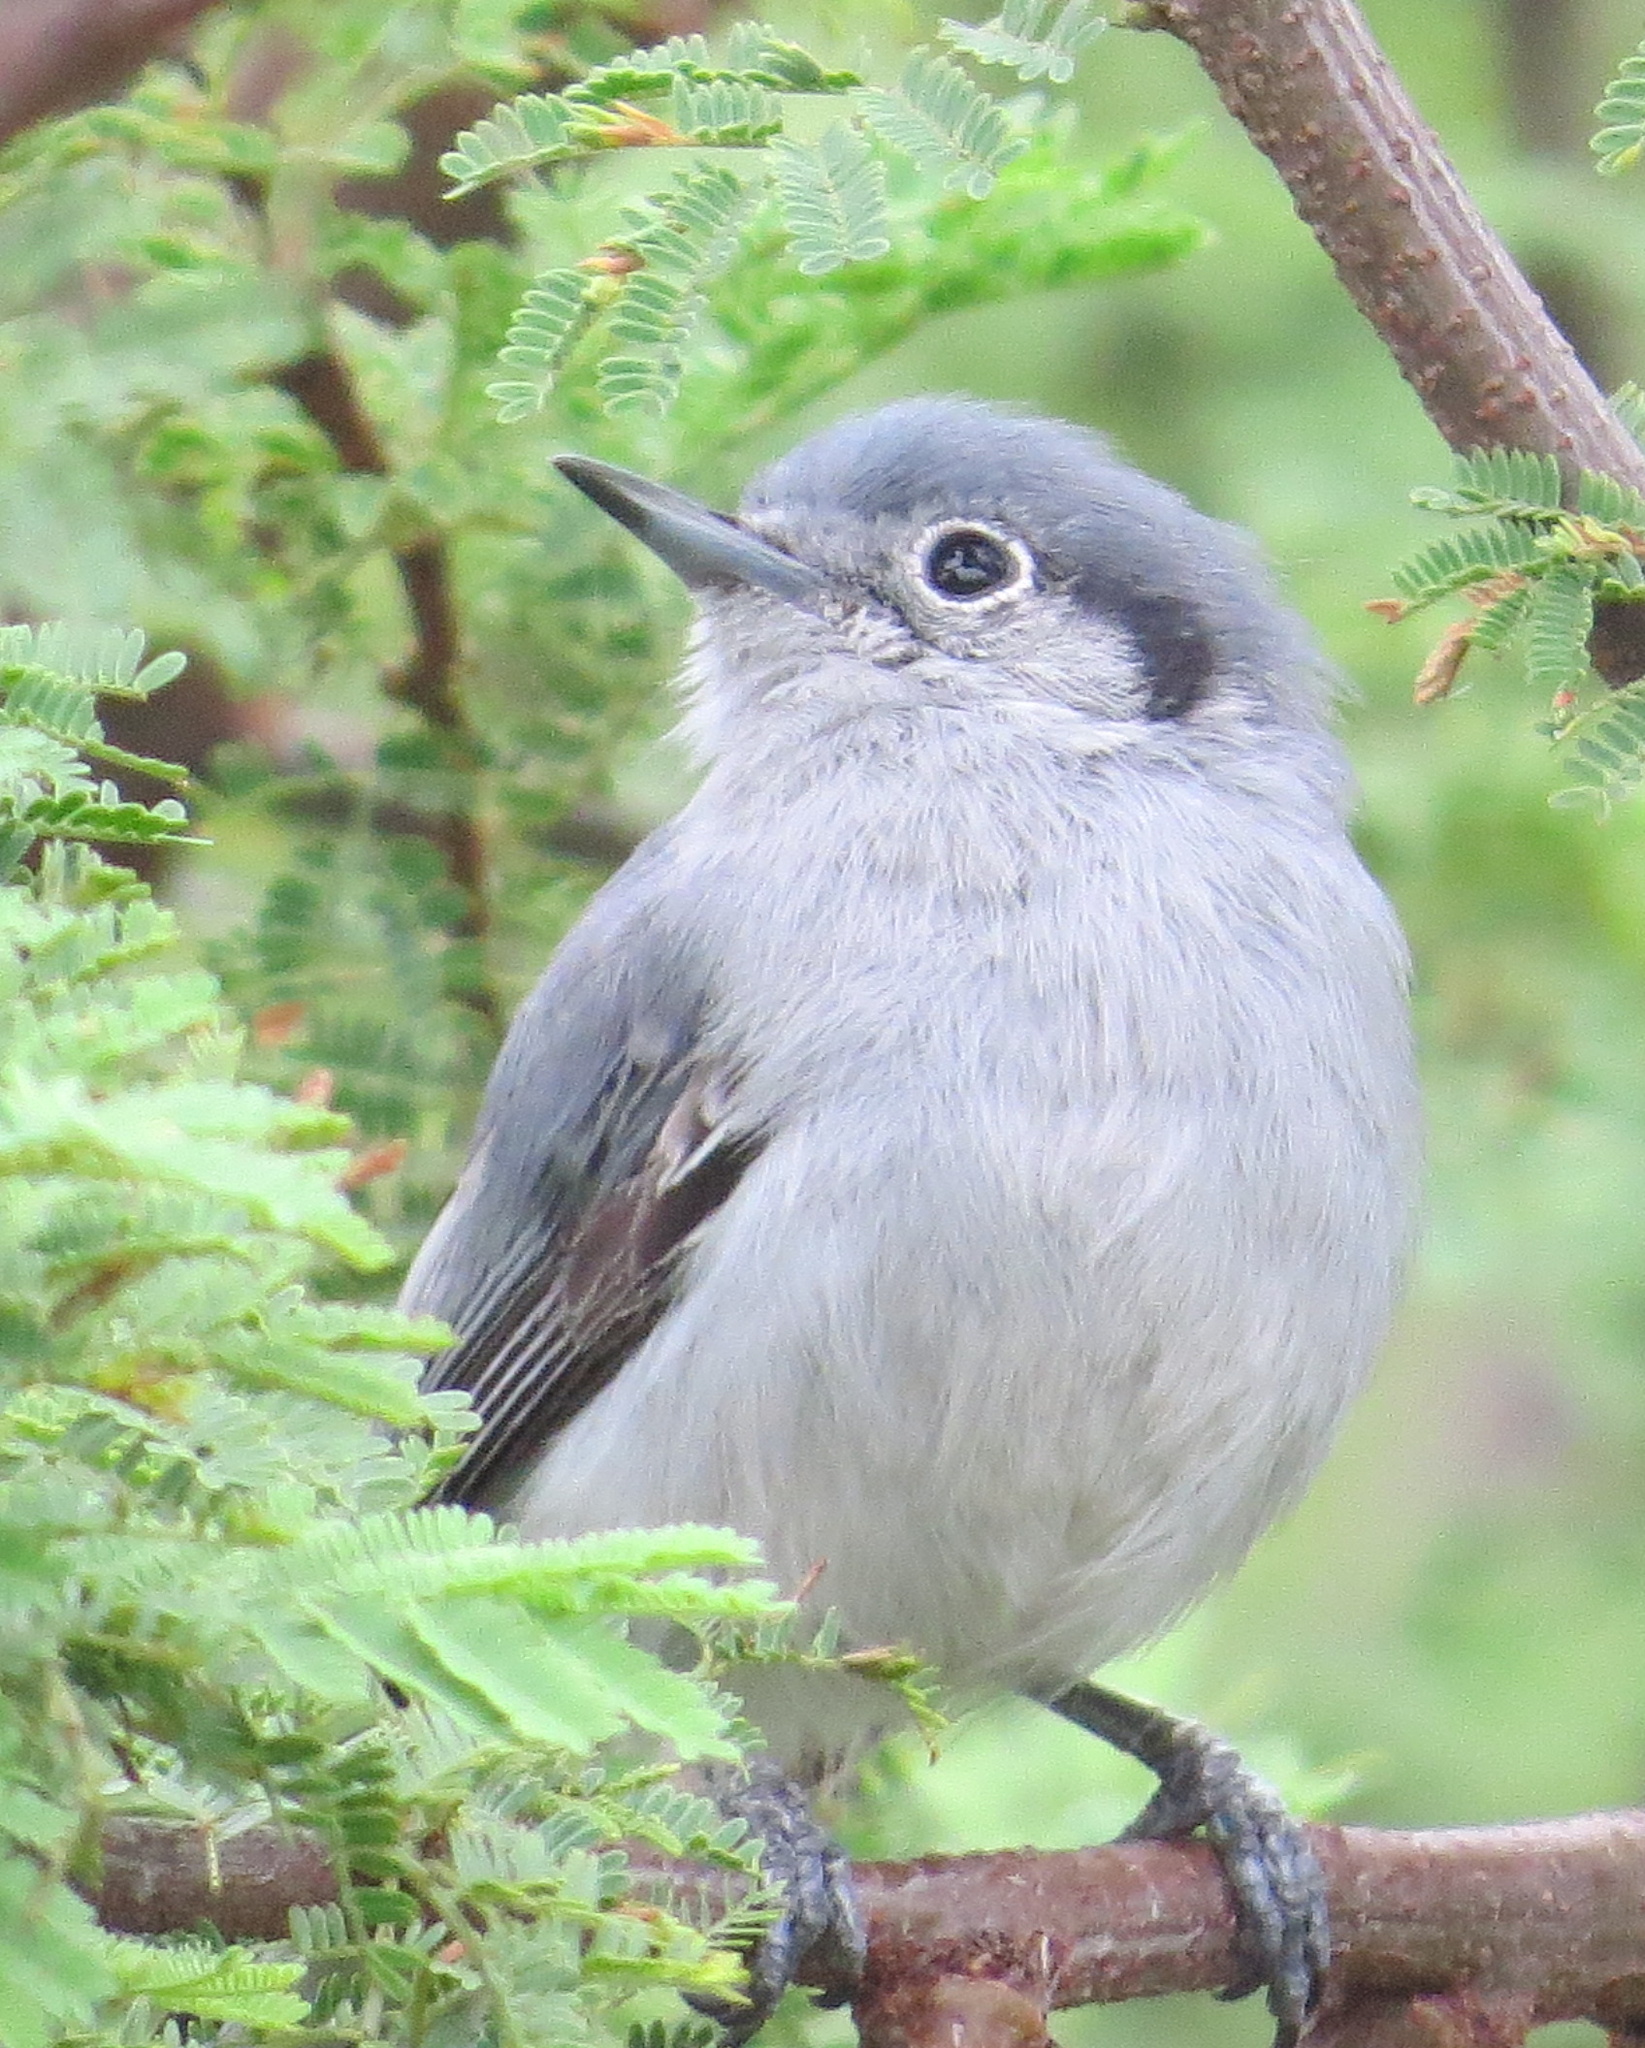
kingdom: Animalia
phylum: Chordata
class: Aves
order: Passeriformes
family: Polioptilidae
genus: Polioptila
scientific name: Polioptila dumicola
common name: Masked gnatcatcher
